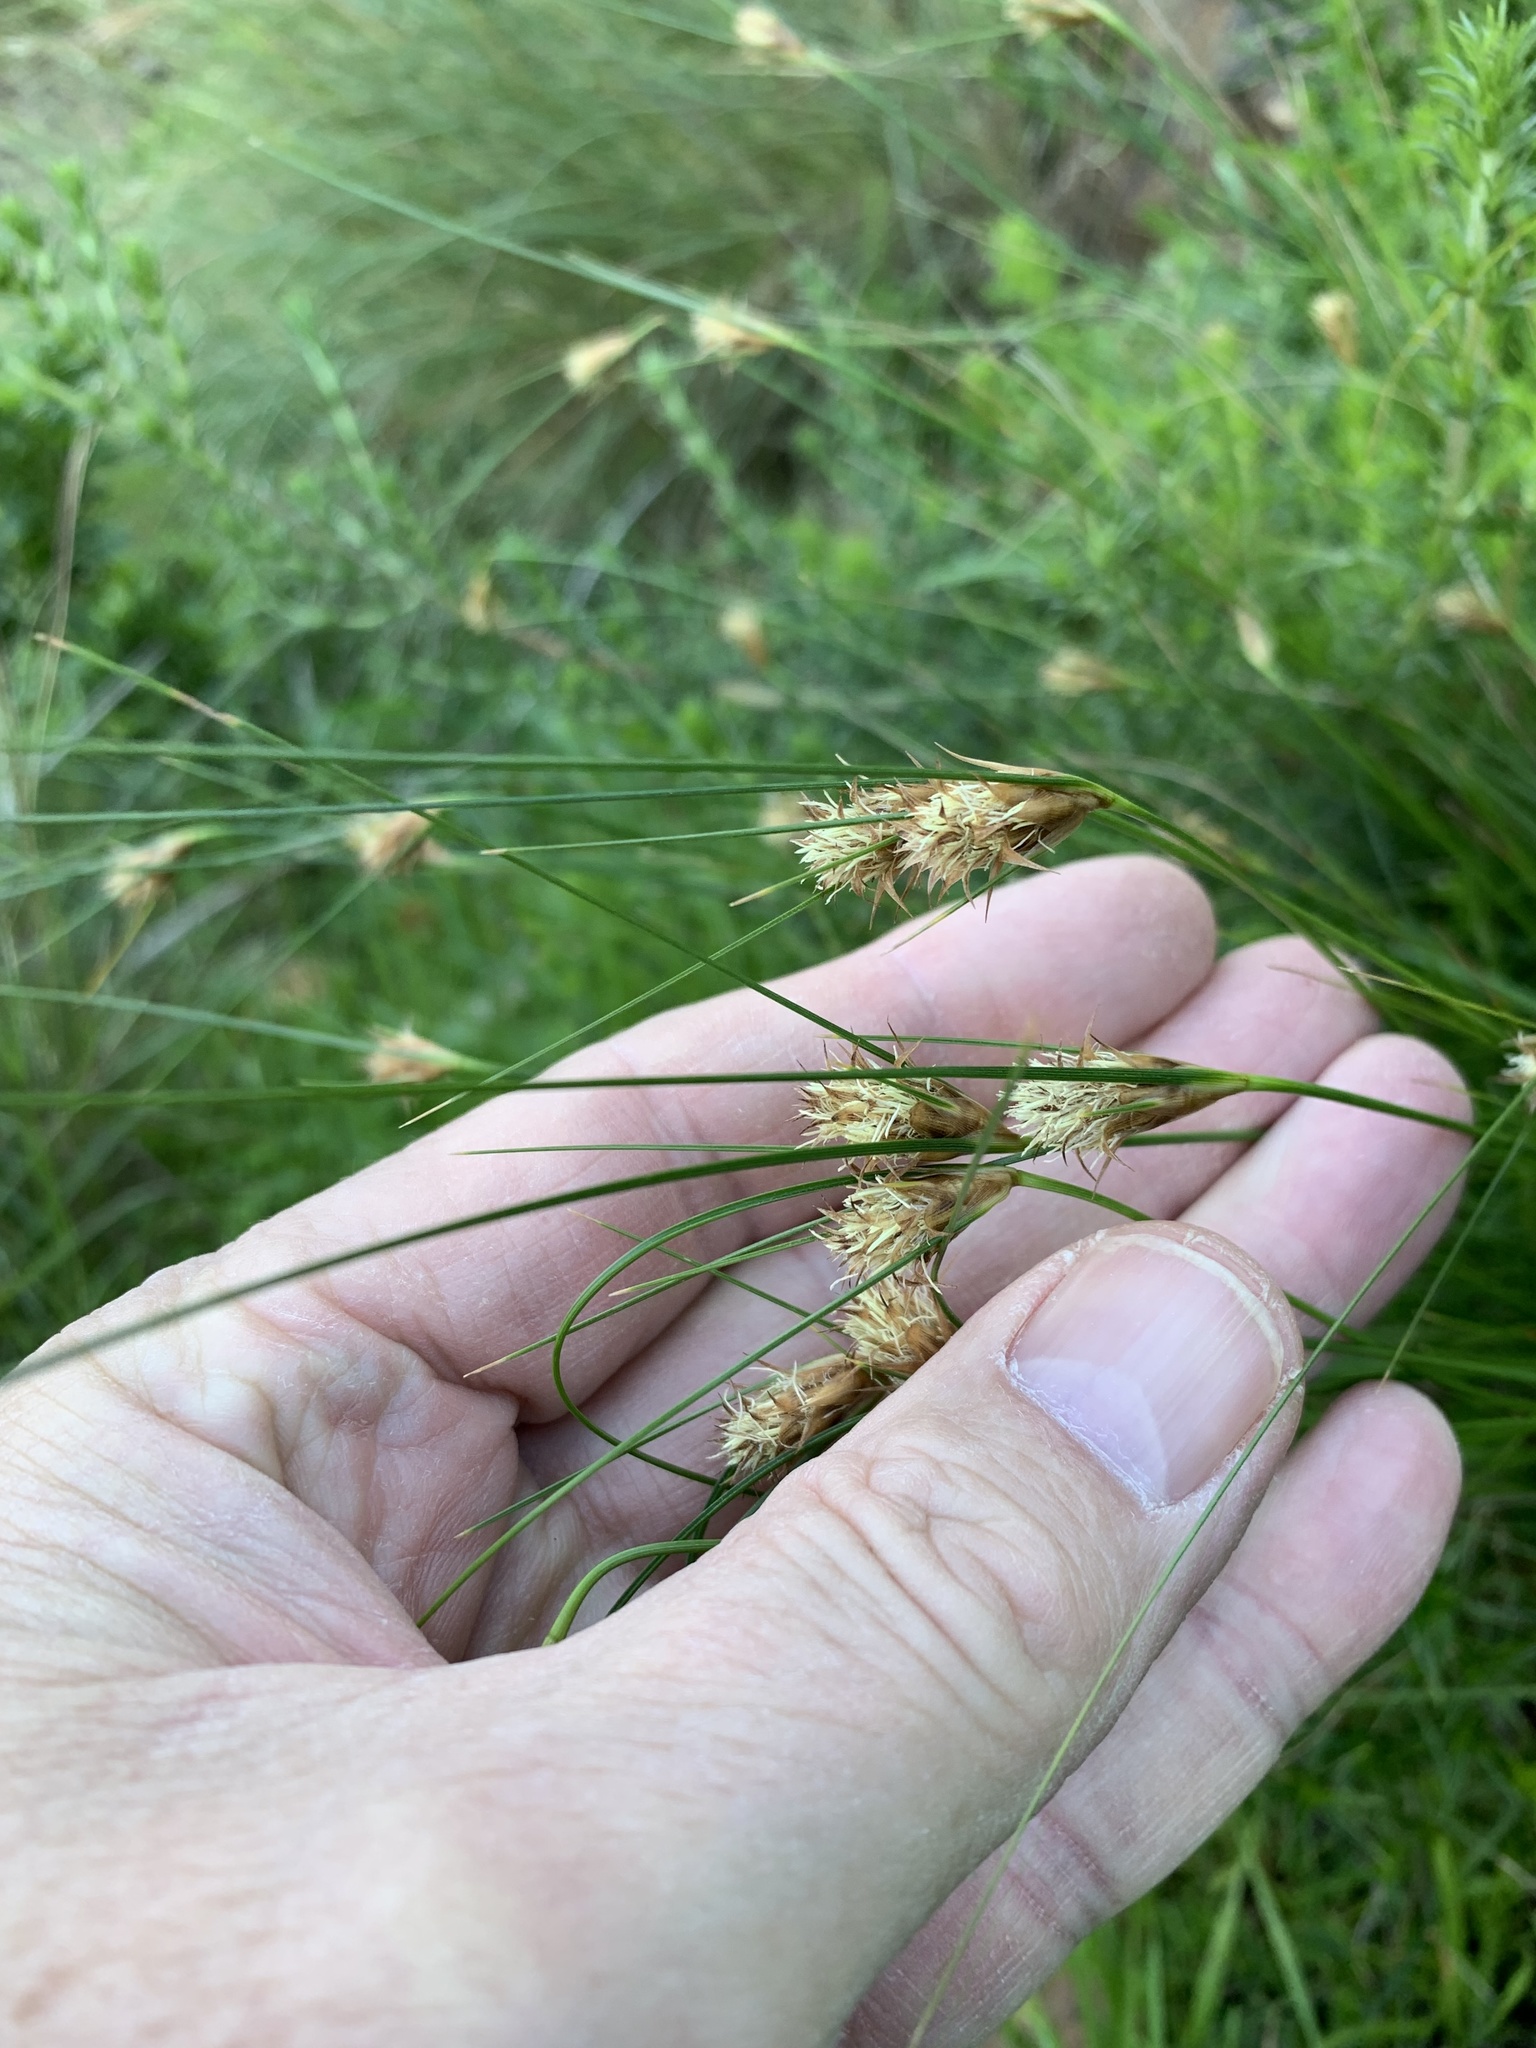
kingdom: Plantae
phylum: Tracheophyta
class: Liliopsida
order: Poales
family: Cyperaceae
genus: Ficinia
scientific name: Ficinia nigrescens
